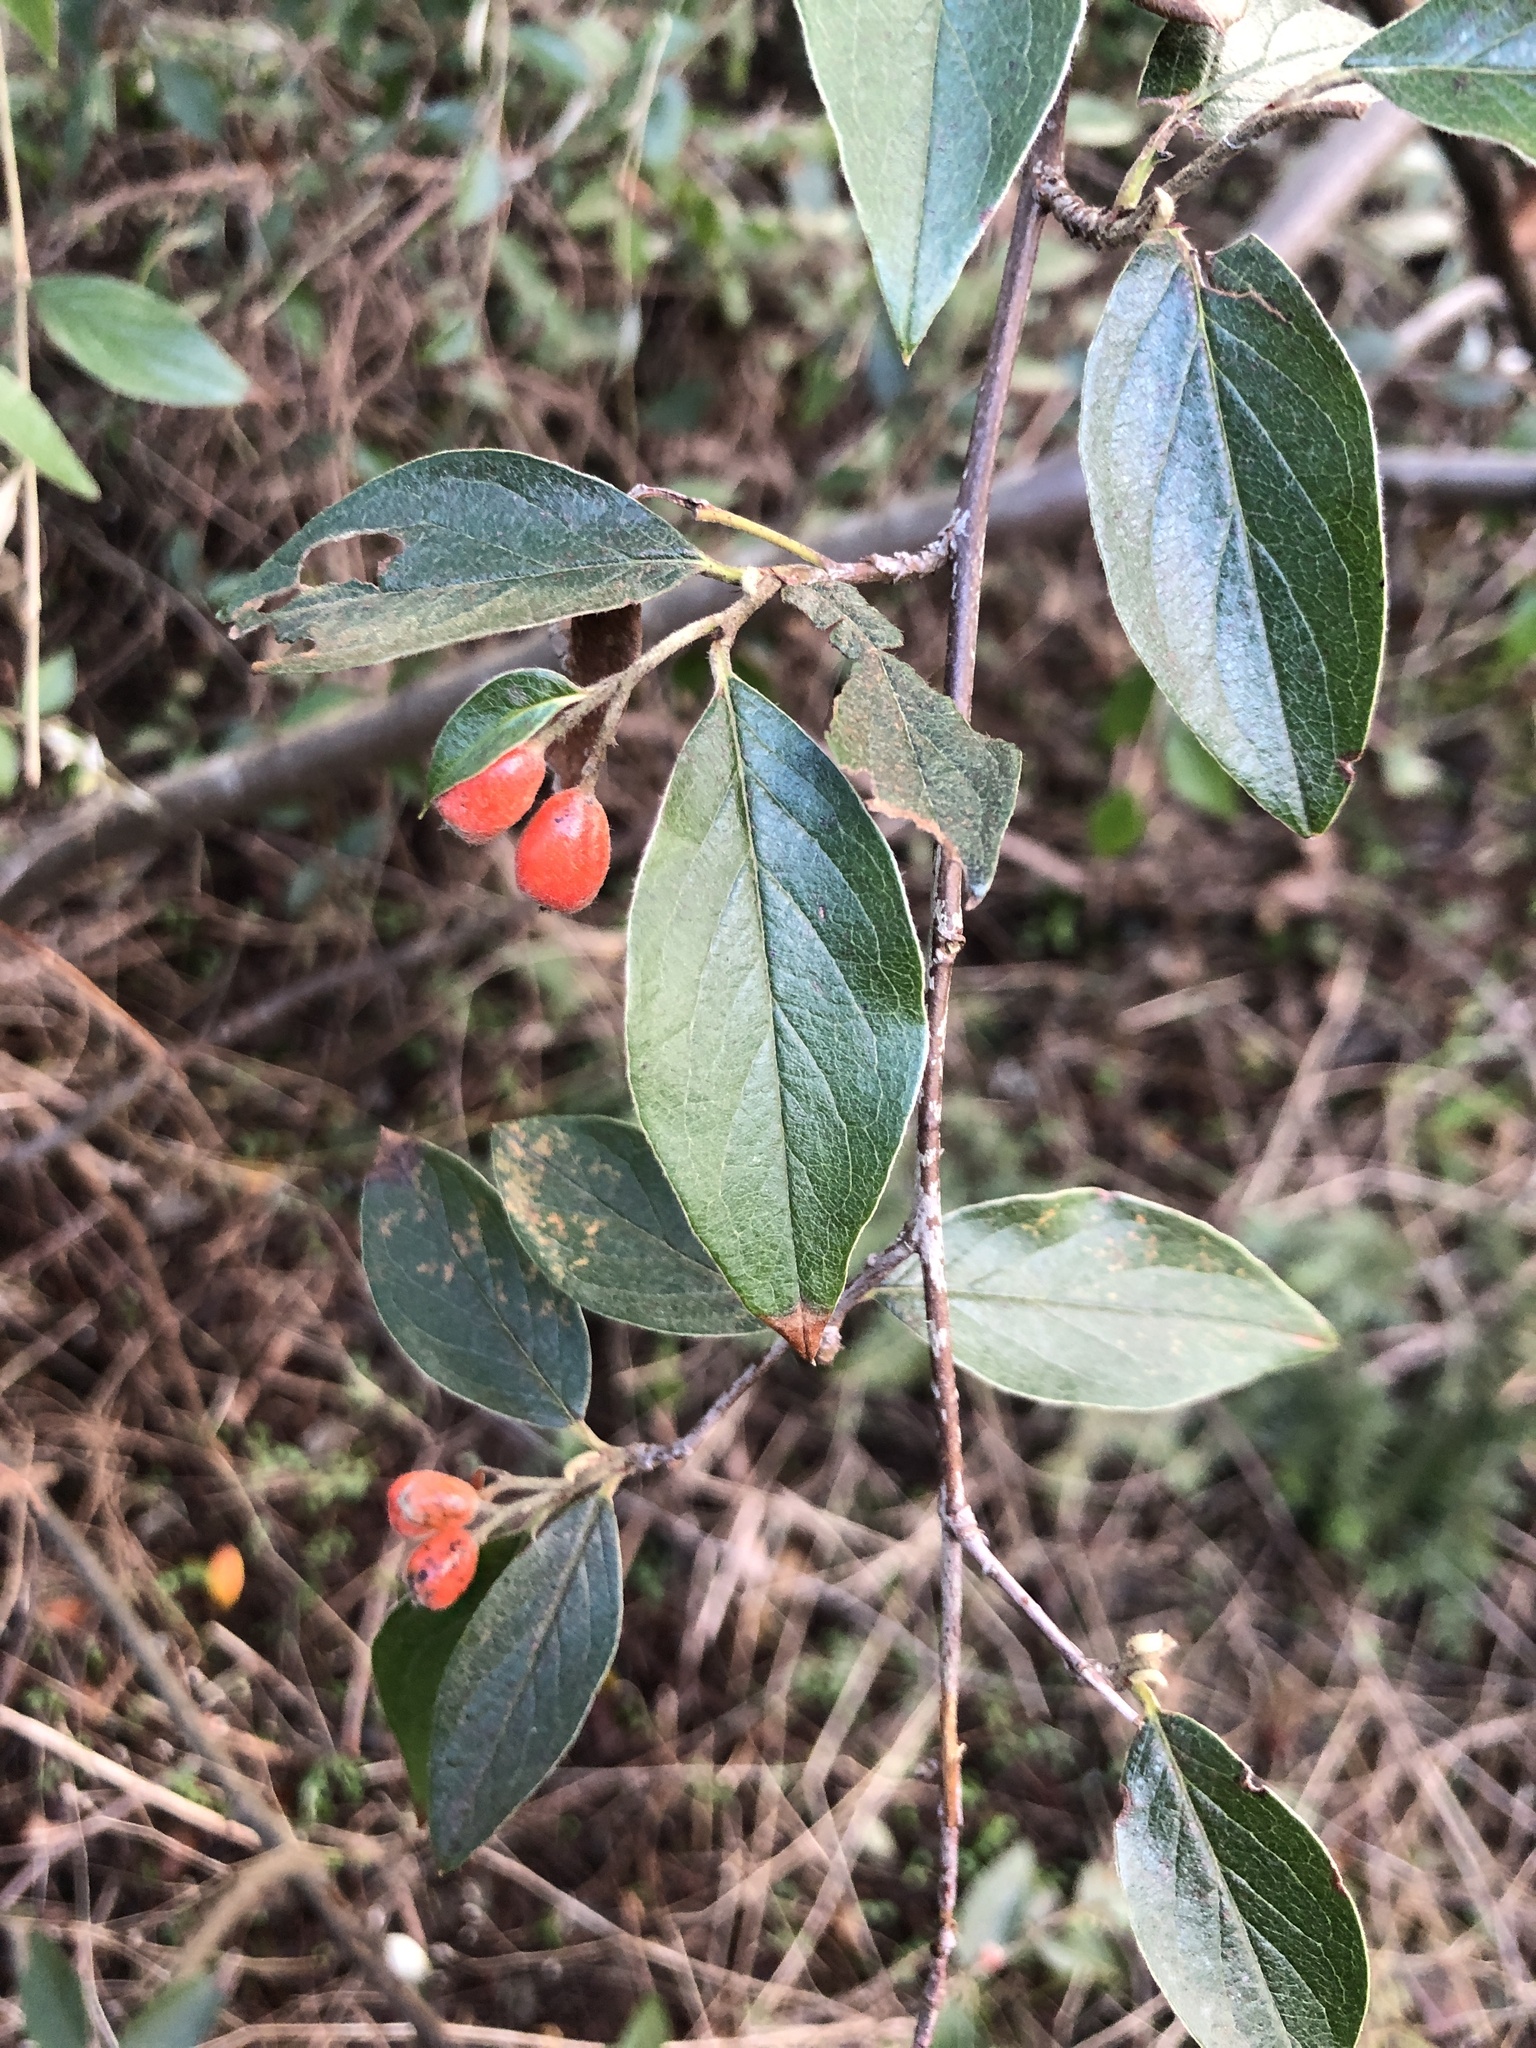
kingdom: Plantae
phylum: Tracheophyta
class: Magnoliopsida
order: Rosales
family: Rosaceae
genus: Cotoneaster
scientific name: Cotoneaster franchetii
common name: Franchet's cotoneaster
